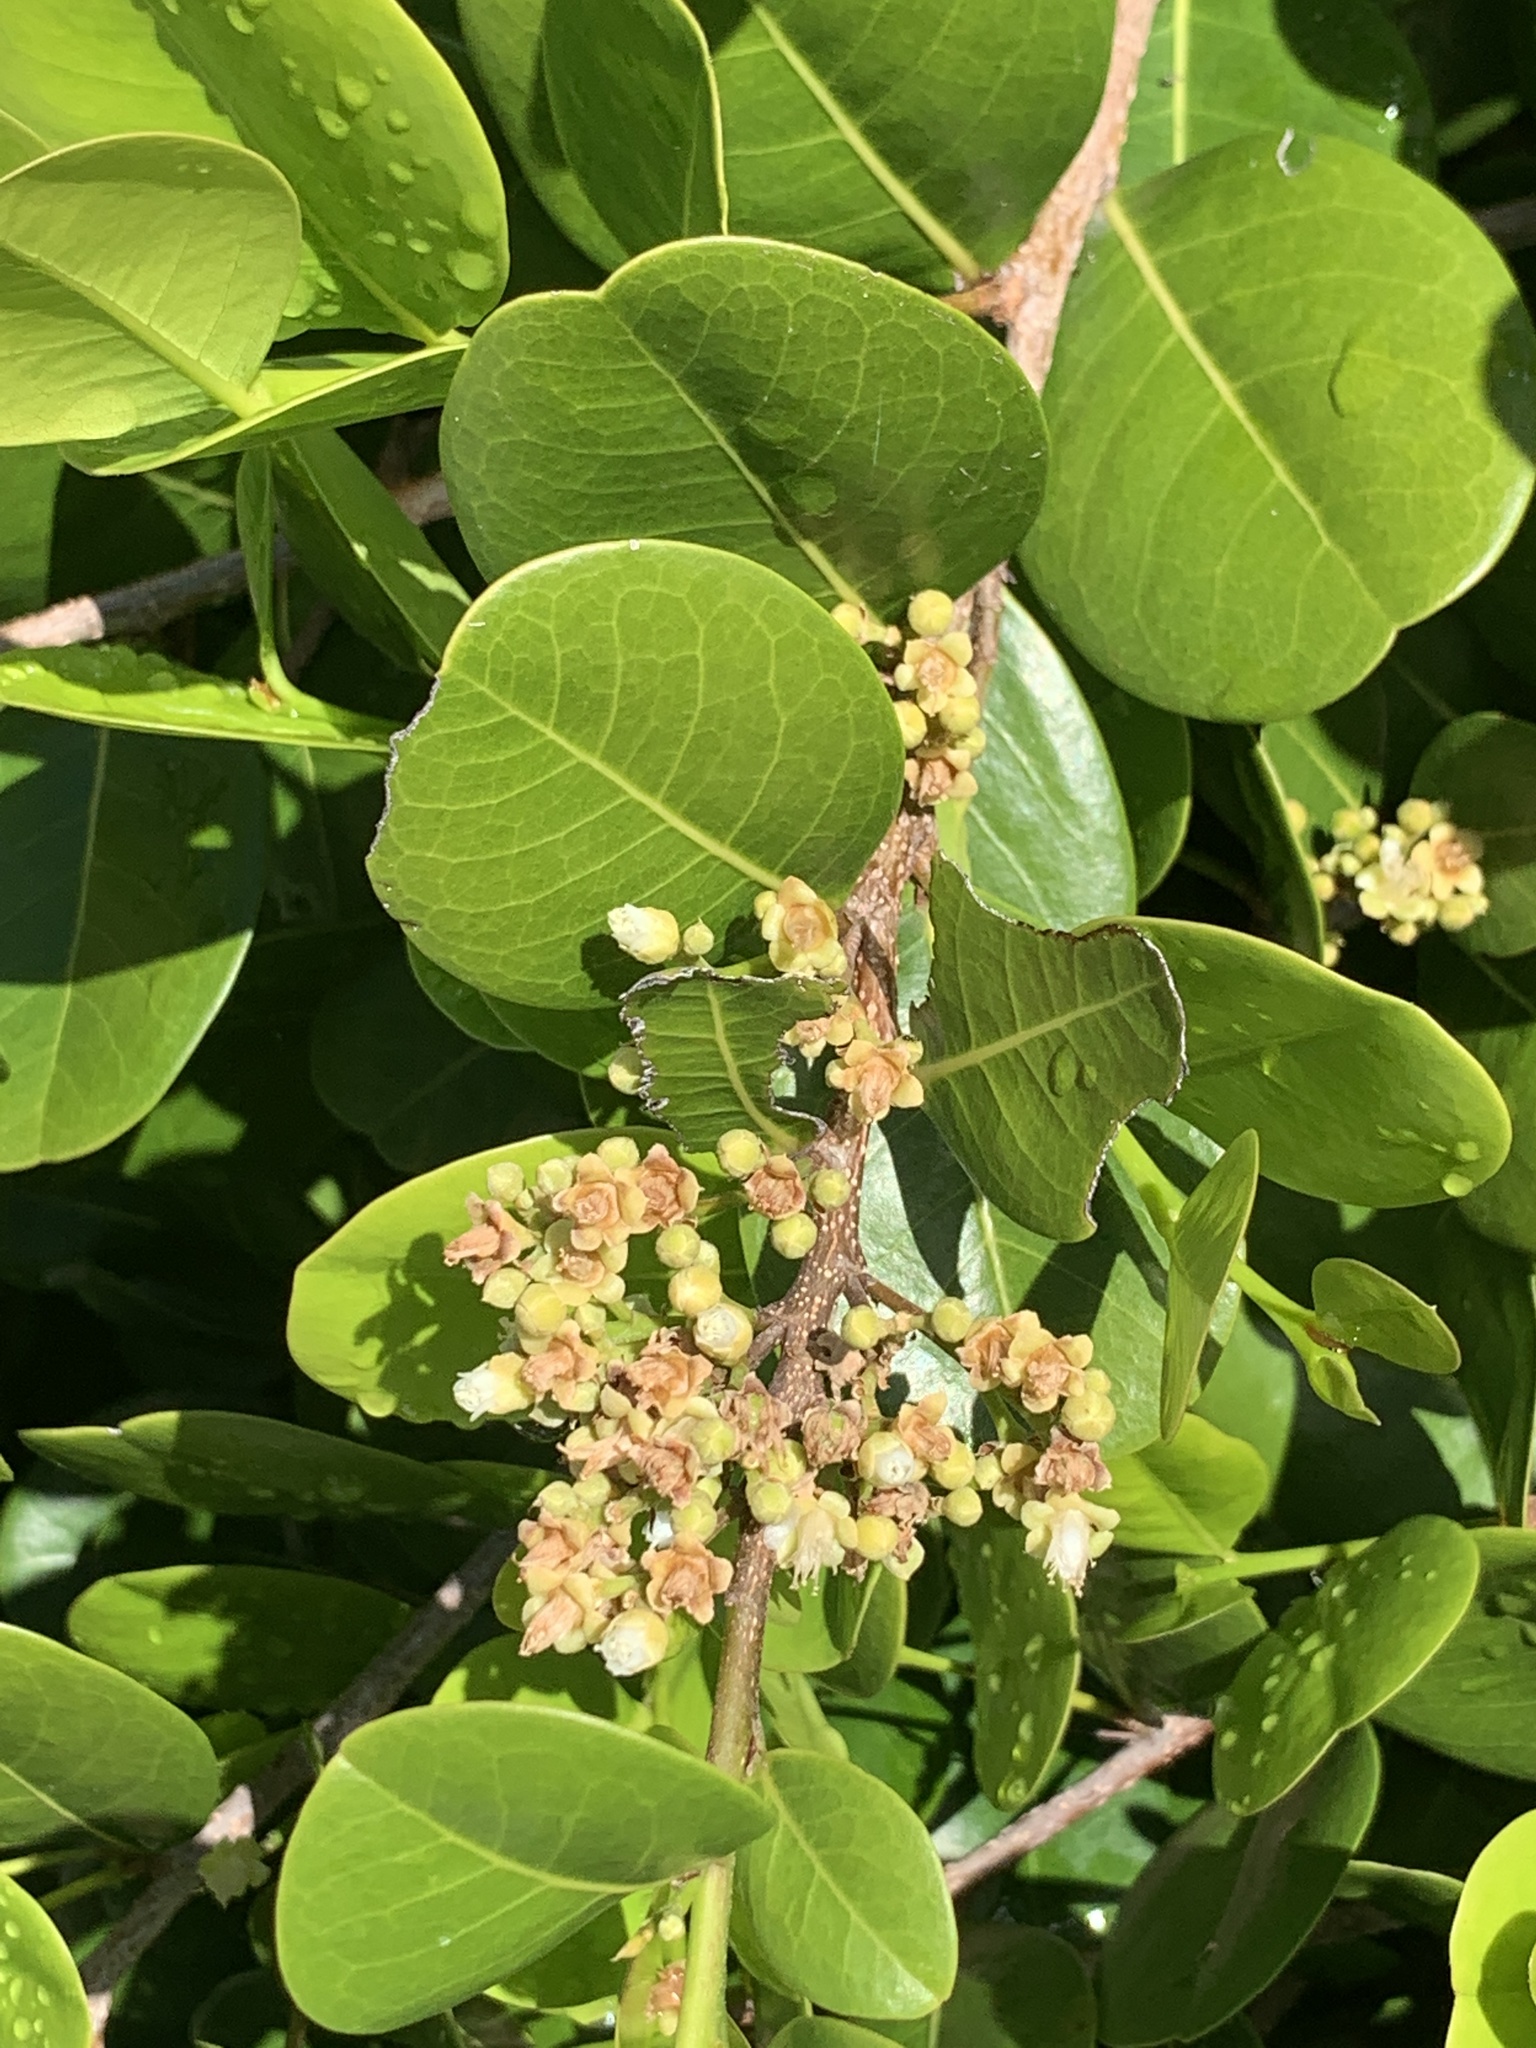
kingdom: Plantae
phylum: Tracheophyta
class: Magnoliopsida
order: Malpighiales
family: Chrysobalanaceae
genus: Chrysobalanus
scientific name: Chrysobalanus icaco
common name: Coco plum
